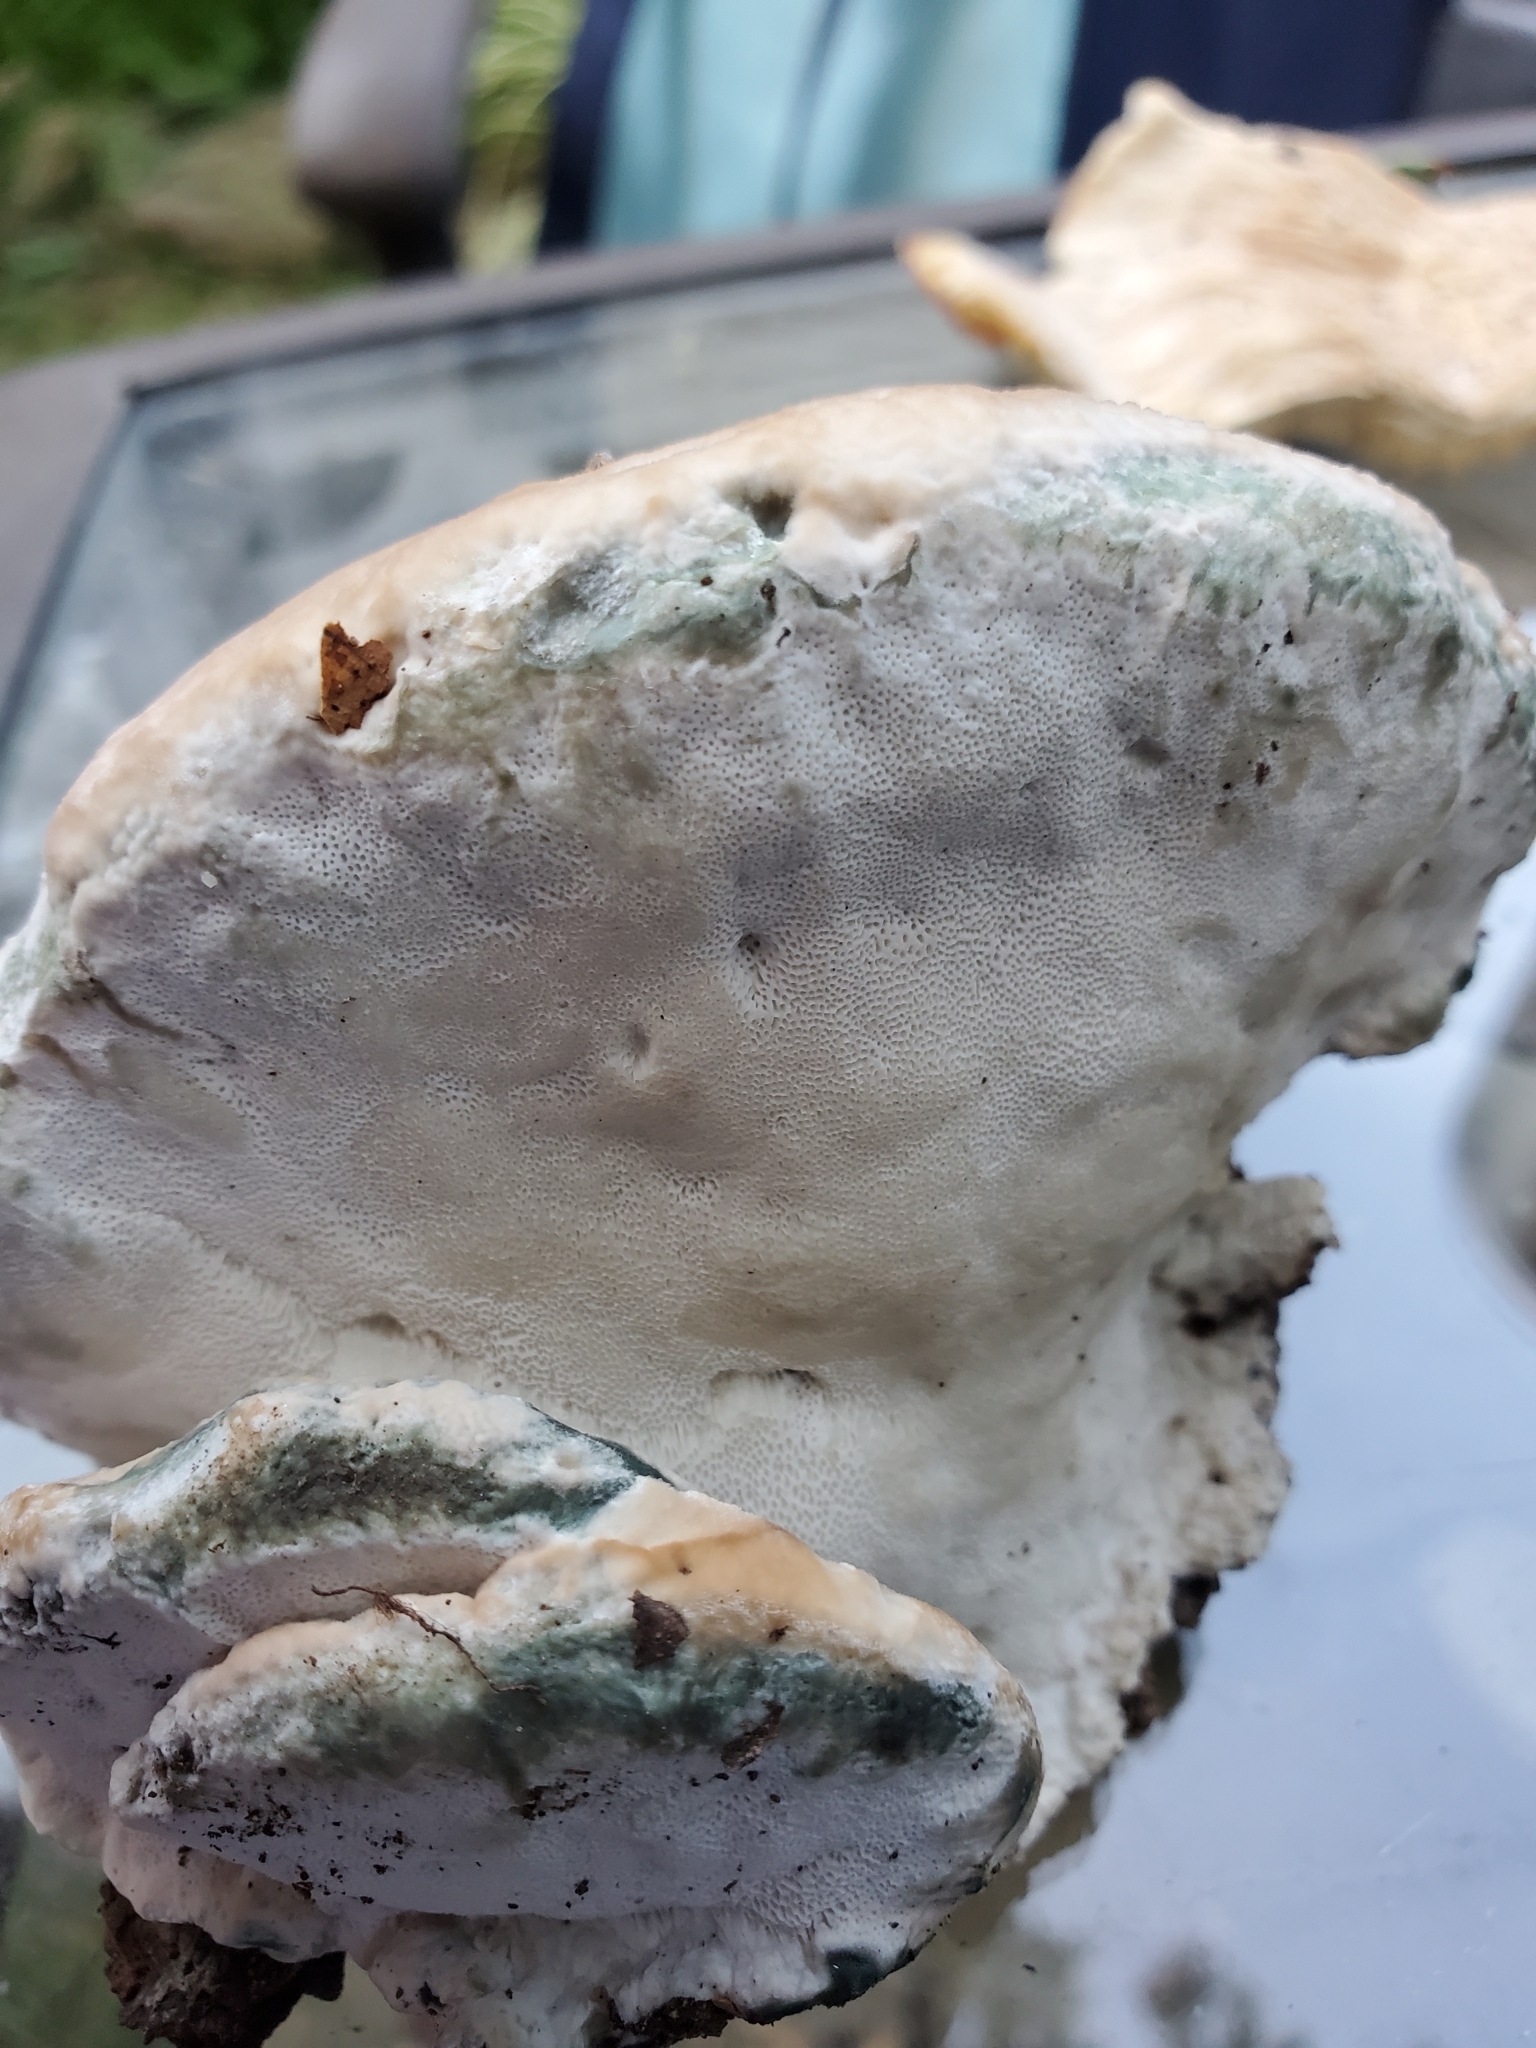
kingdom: Fungi
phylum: Basidiomycota
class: Agaricomycetes
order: Polyporales
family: Fomitopsidaceae
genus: Niveoporofomes
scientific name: Niveoporofomes spraguei
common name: Green cheese polypore
